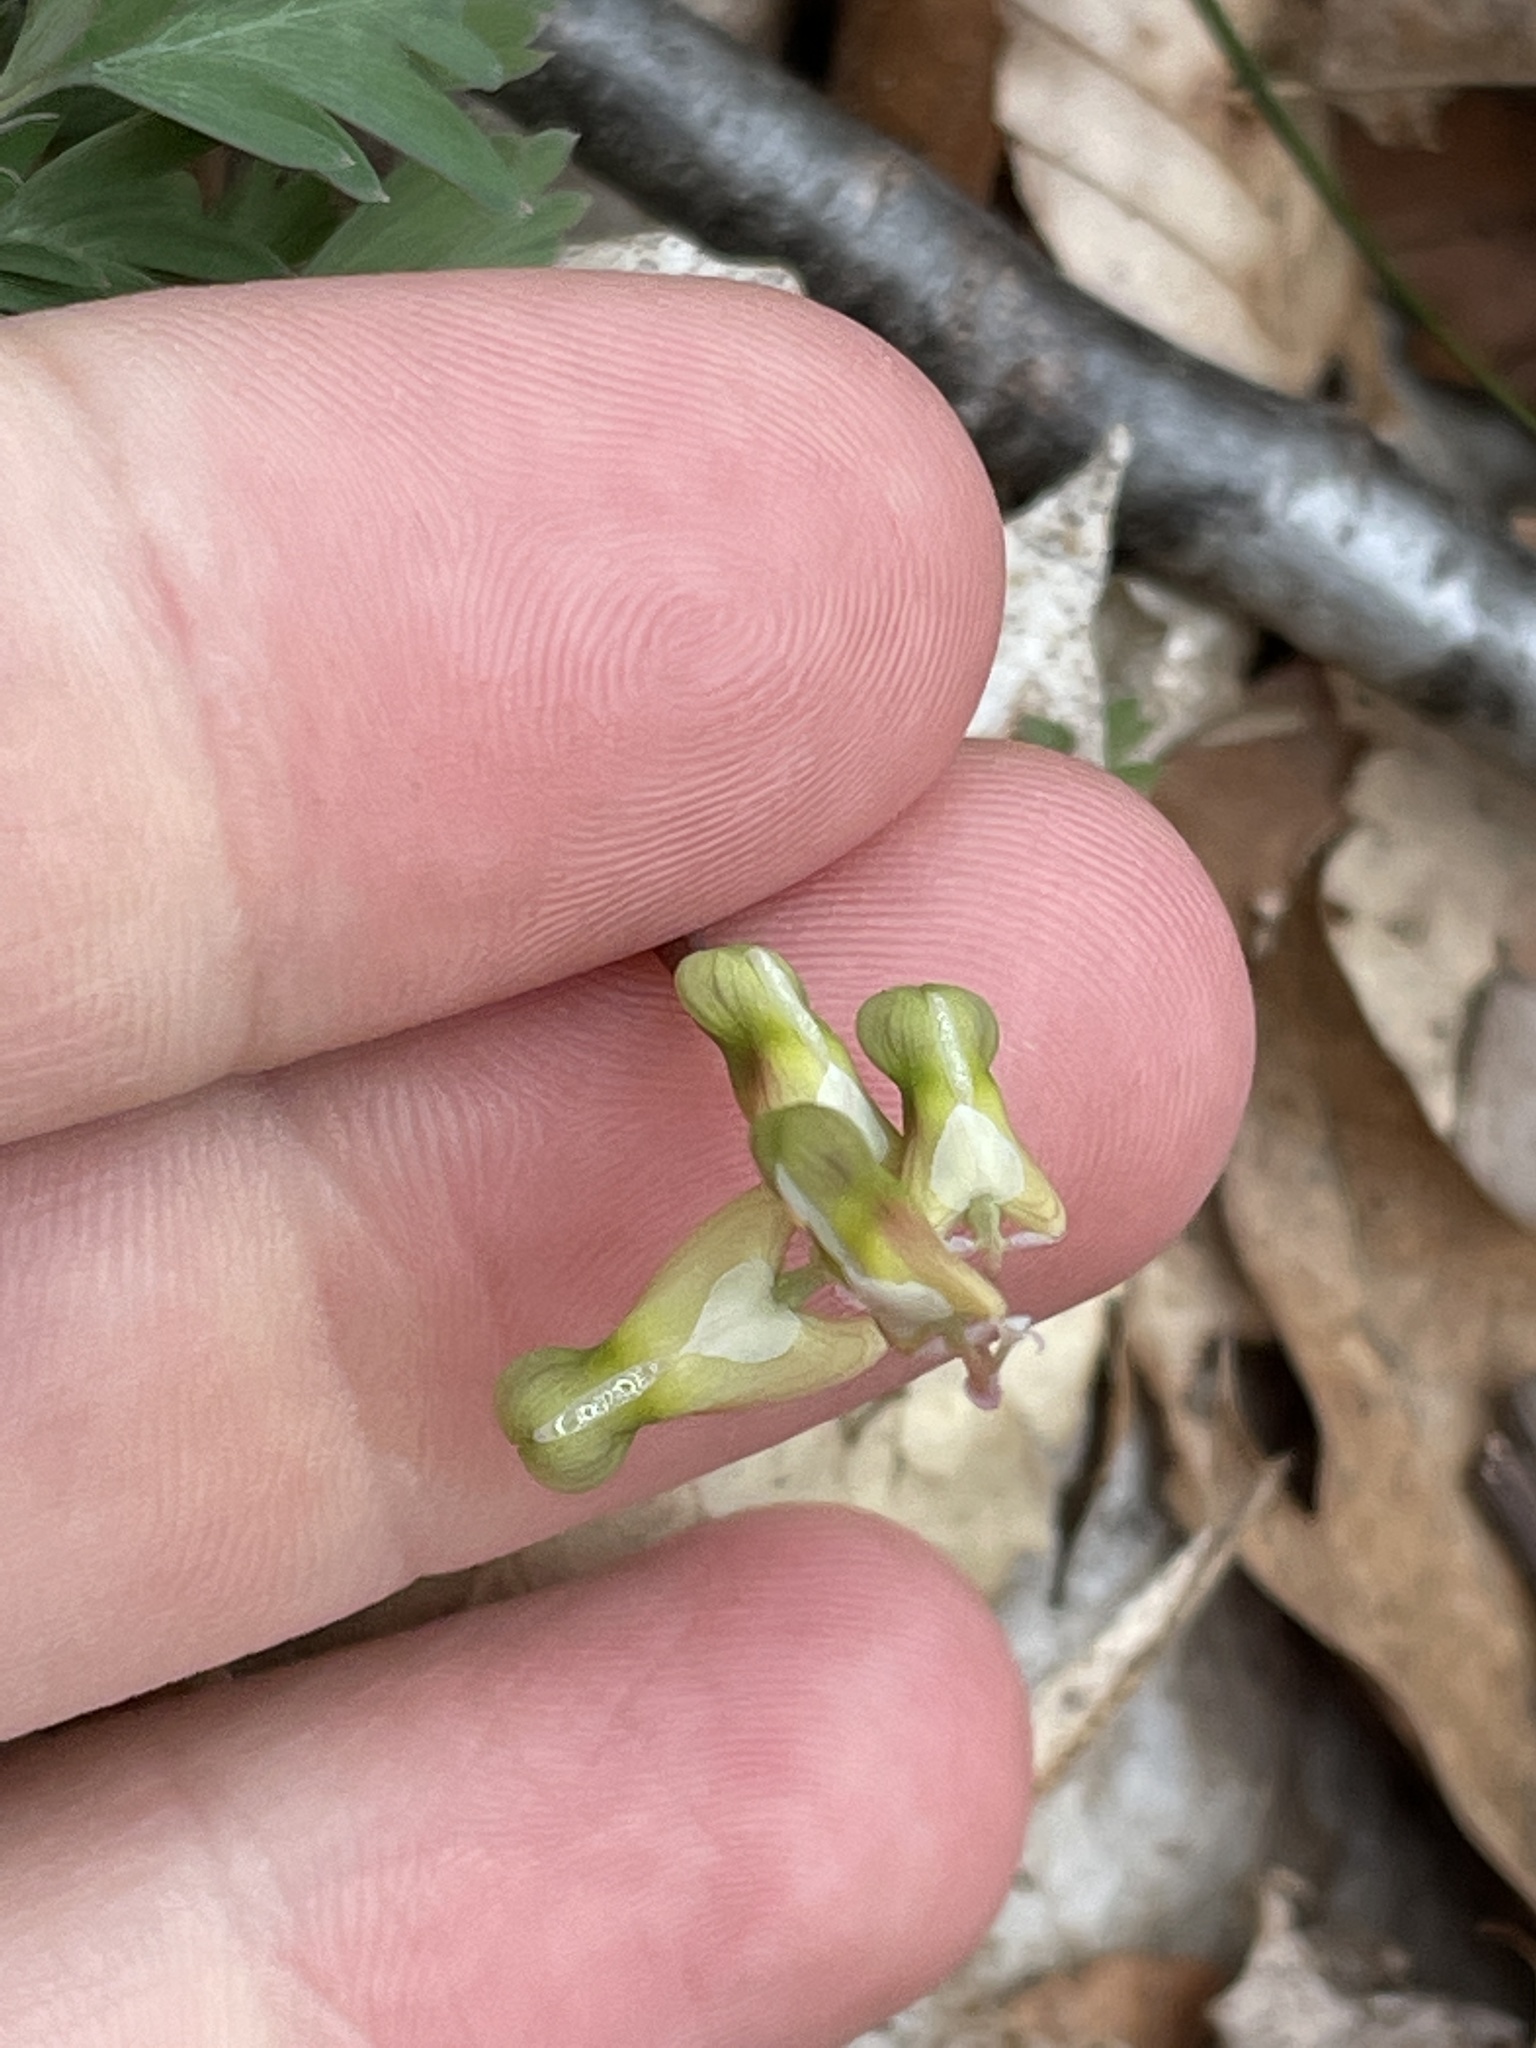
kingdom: Plantae
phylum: Tracheophyta
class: Magnoliopsida
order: Ranunculales
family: Papaveraceae
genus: Dicentra
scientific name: Dicentra cucullaria
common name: Dutchman's breeches
